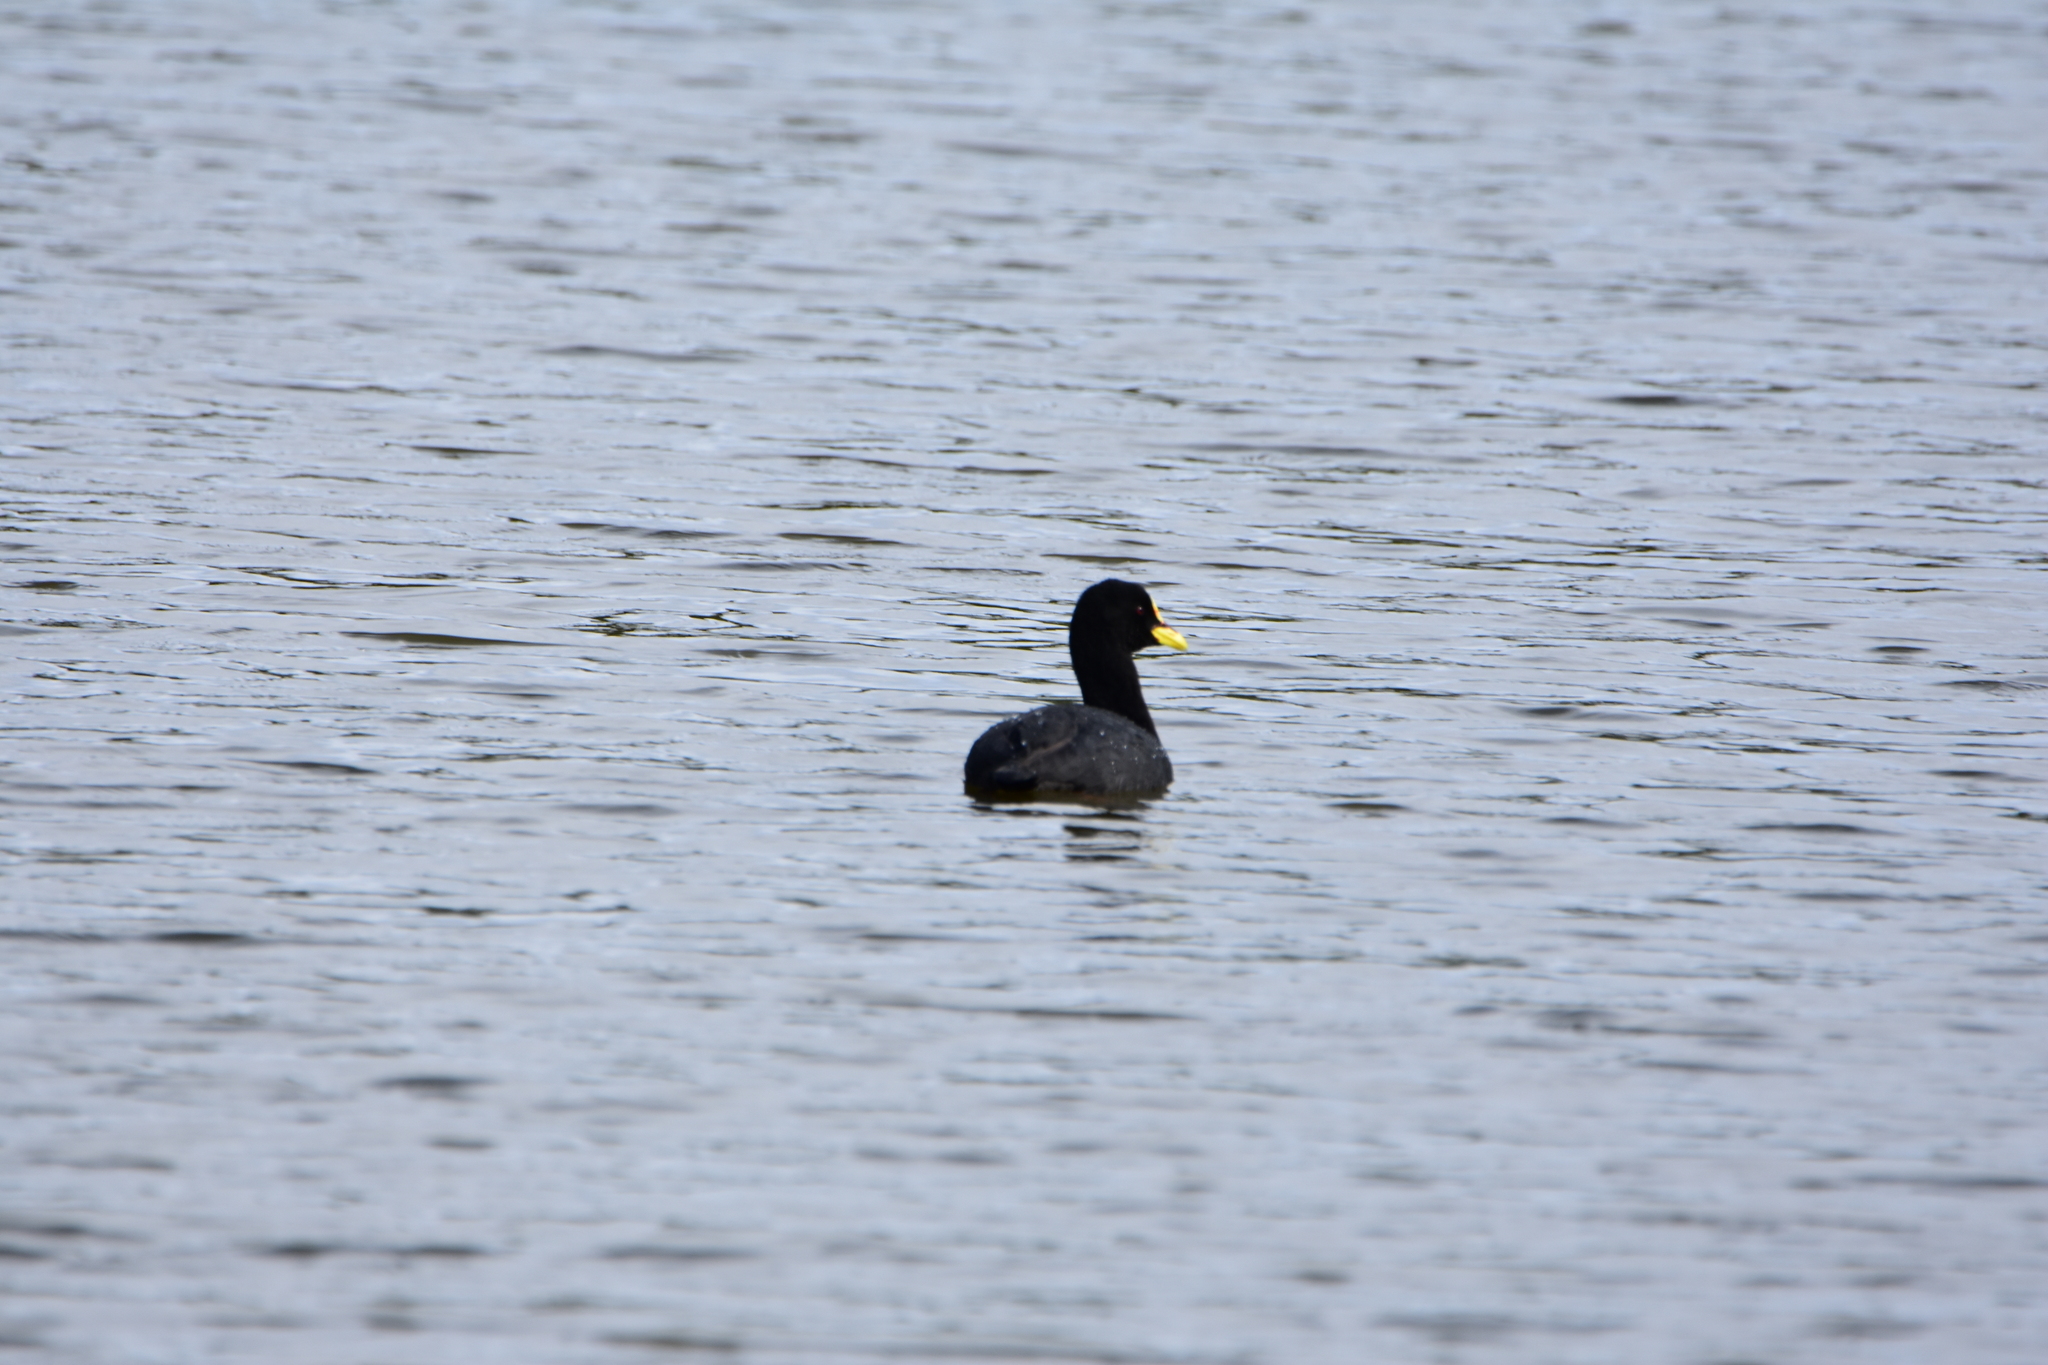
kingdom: Animalia
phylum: Chordata
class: Aves
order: Gruiformes
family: Rallidae
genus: Fulica
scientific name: Fulica armillata
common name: Red-gartered coot
